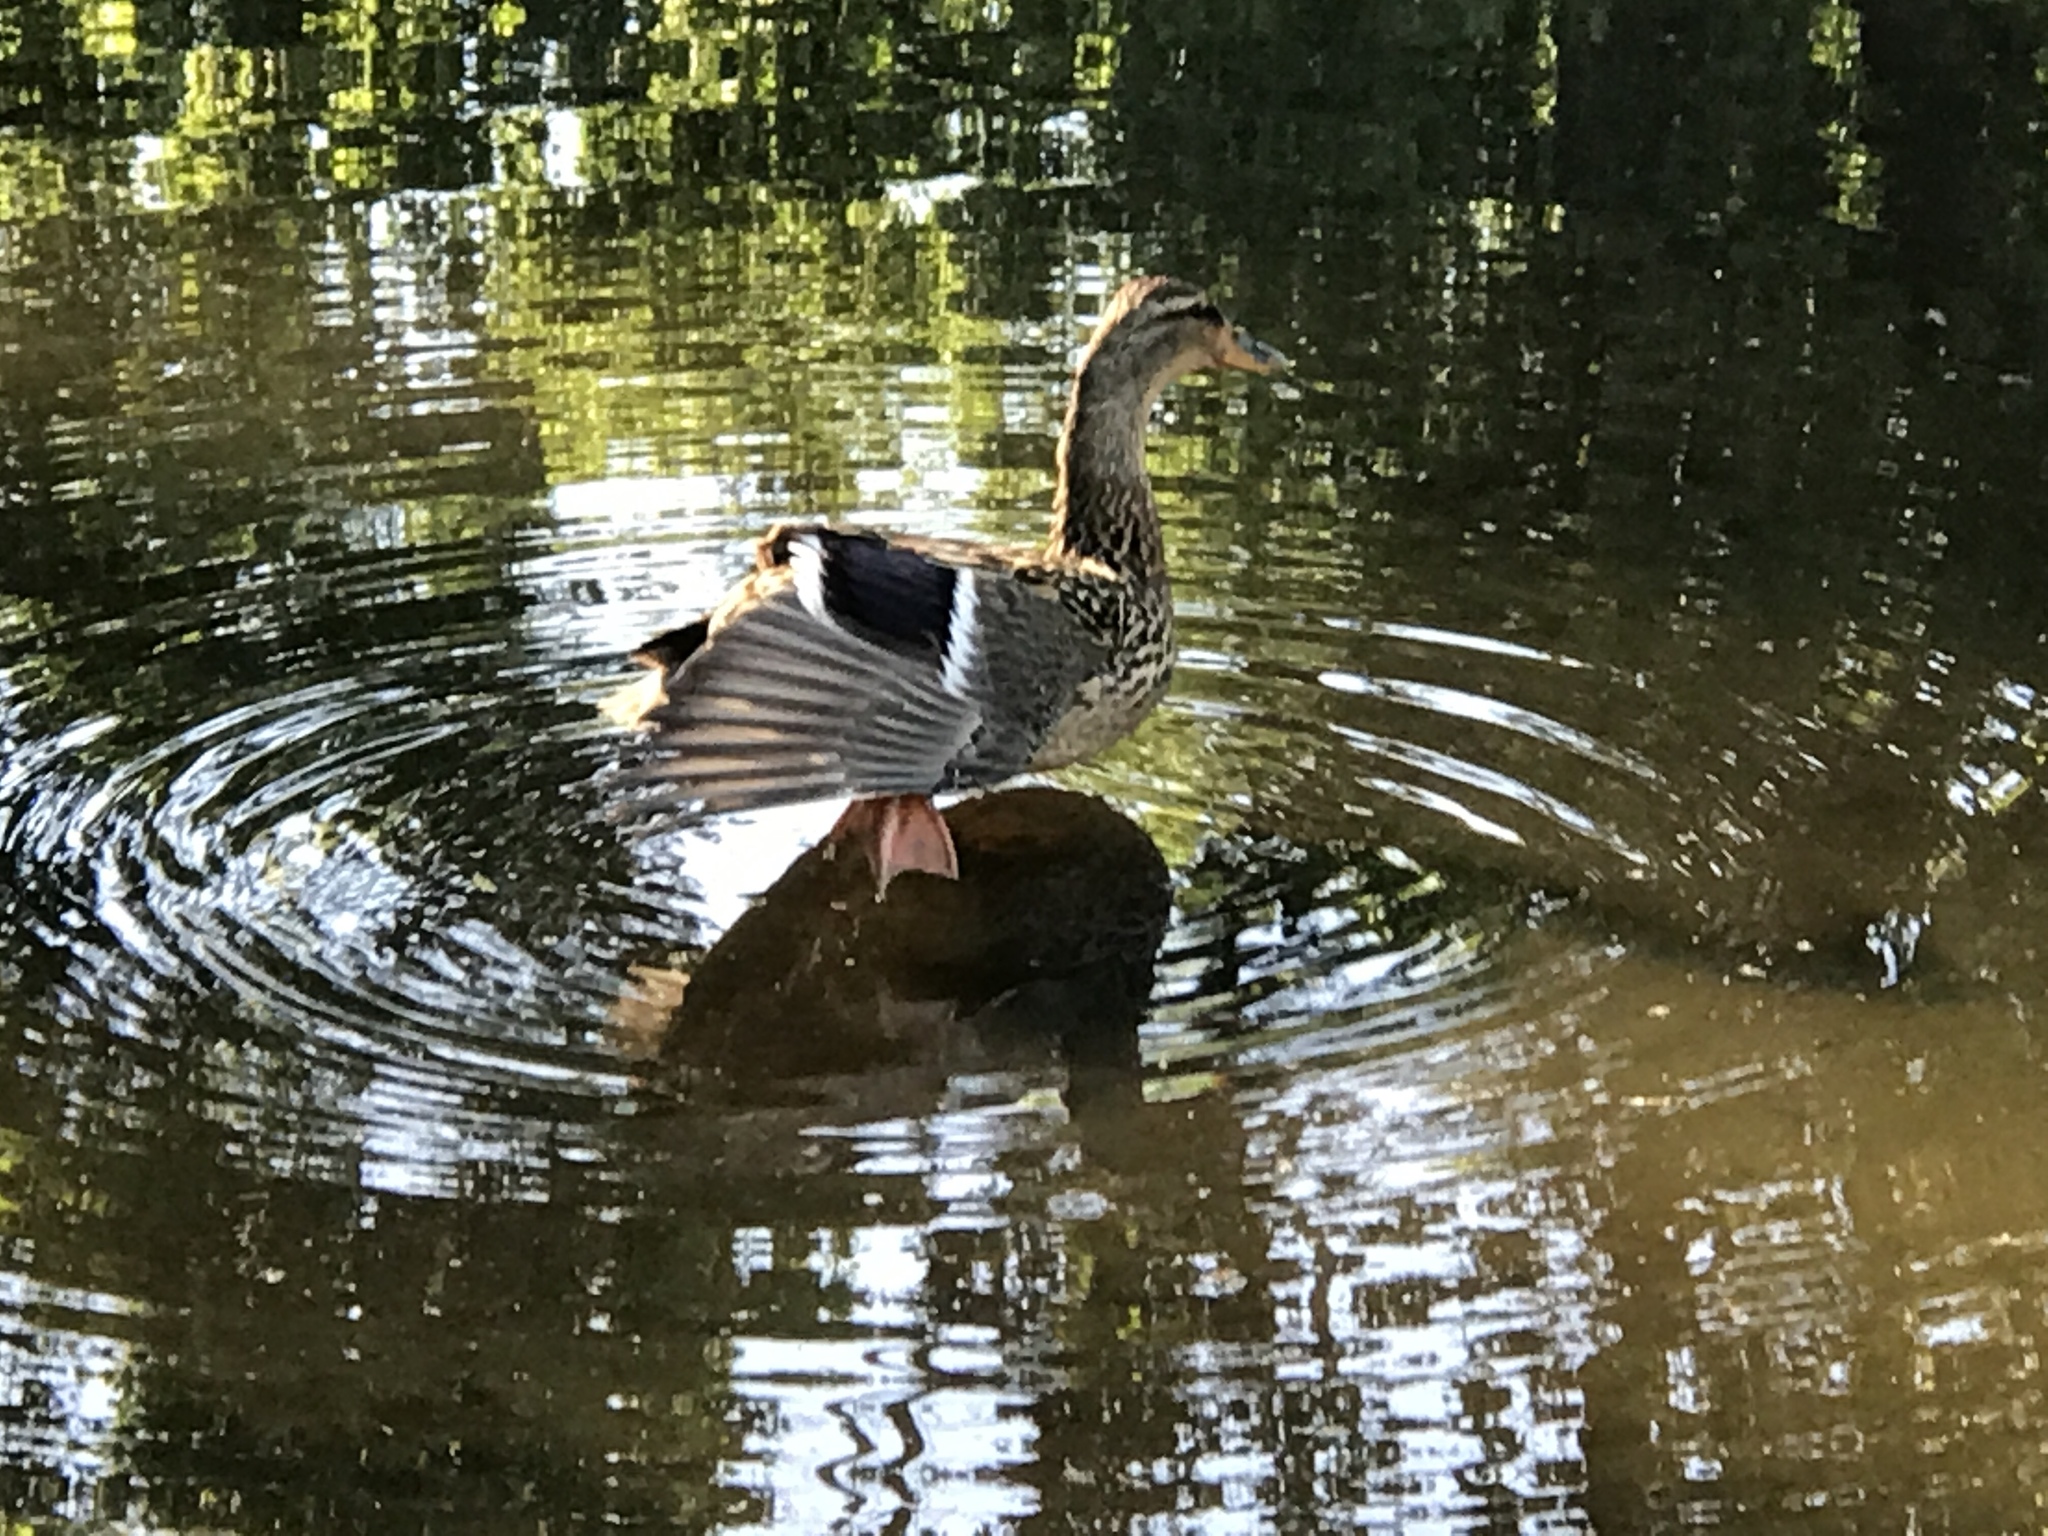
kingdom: Animalia
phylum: Chordata
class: Aves
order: Anseriformes
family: Anatidae
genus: Anas
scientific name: Anas platyrhynchos
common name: Mallard
